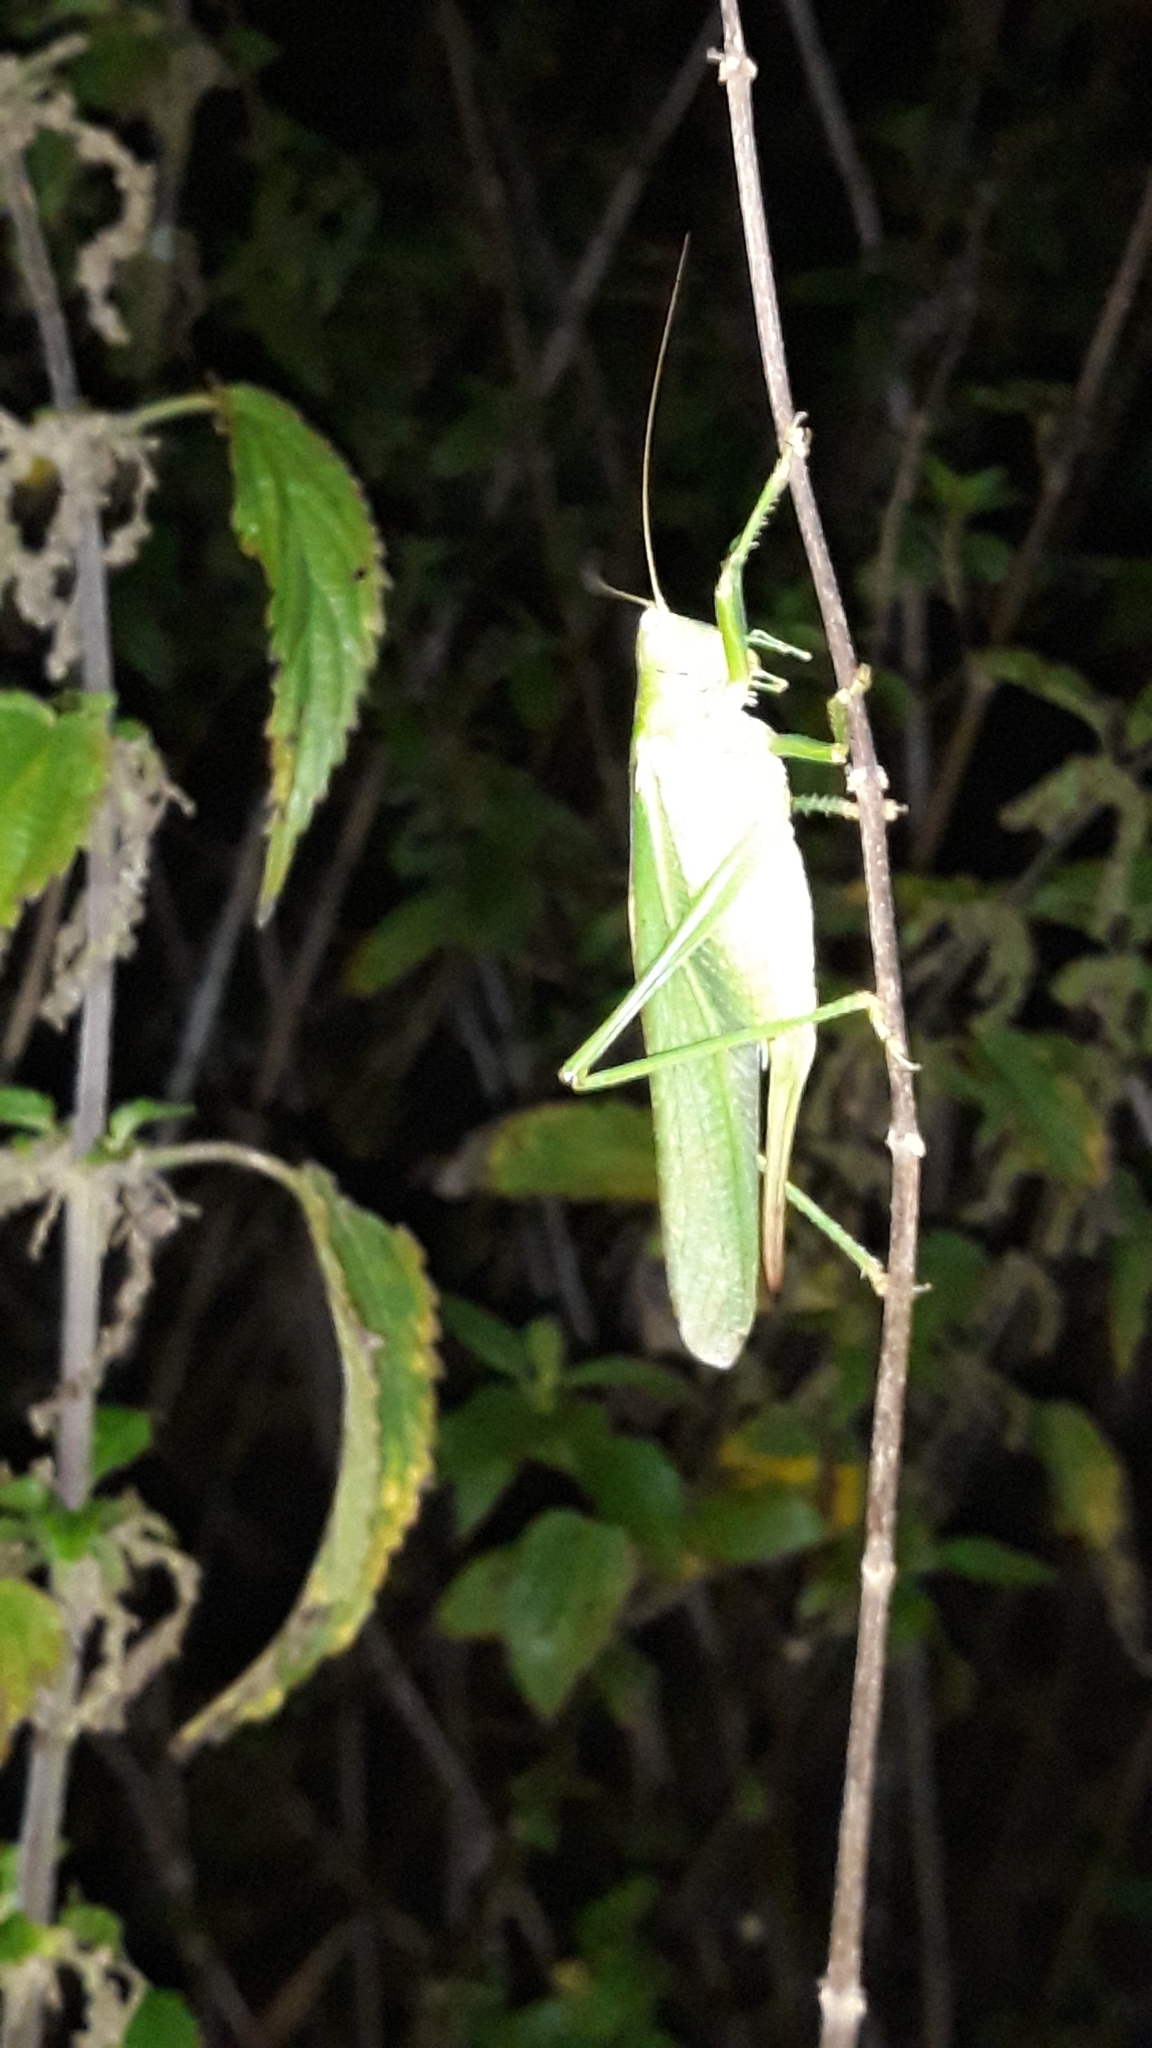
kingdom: Animalia
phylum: Arthropoda
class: Insecta
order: Orthoptera
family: Tettigoniidae
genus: Tettigonia
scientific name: Tettigonia viridissima
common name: Great green bush-cricket
